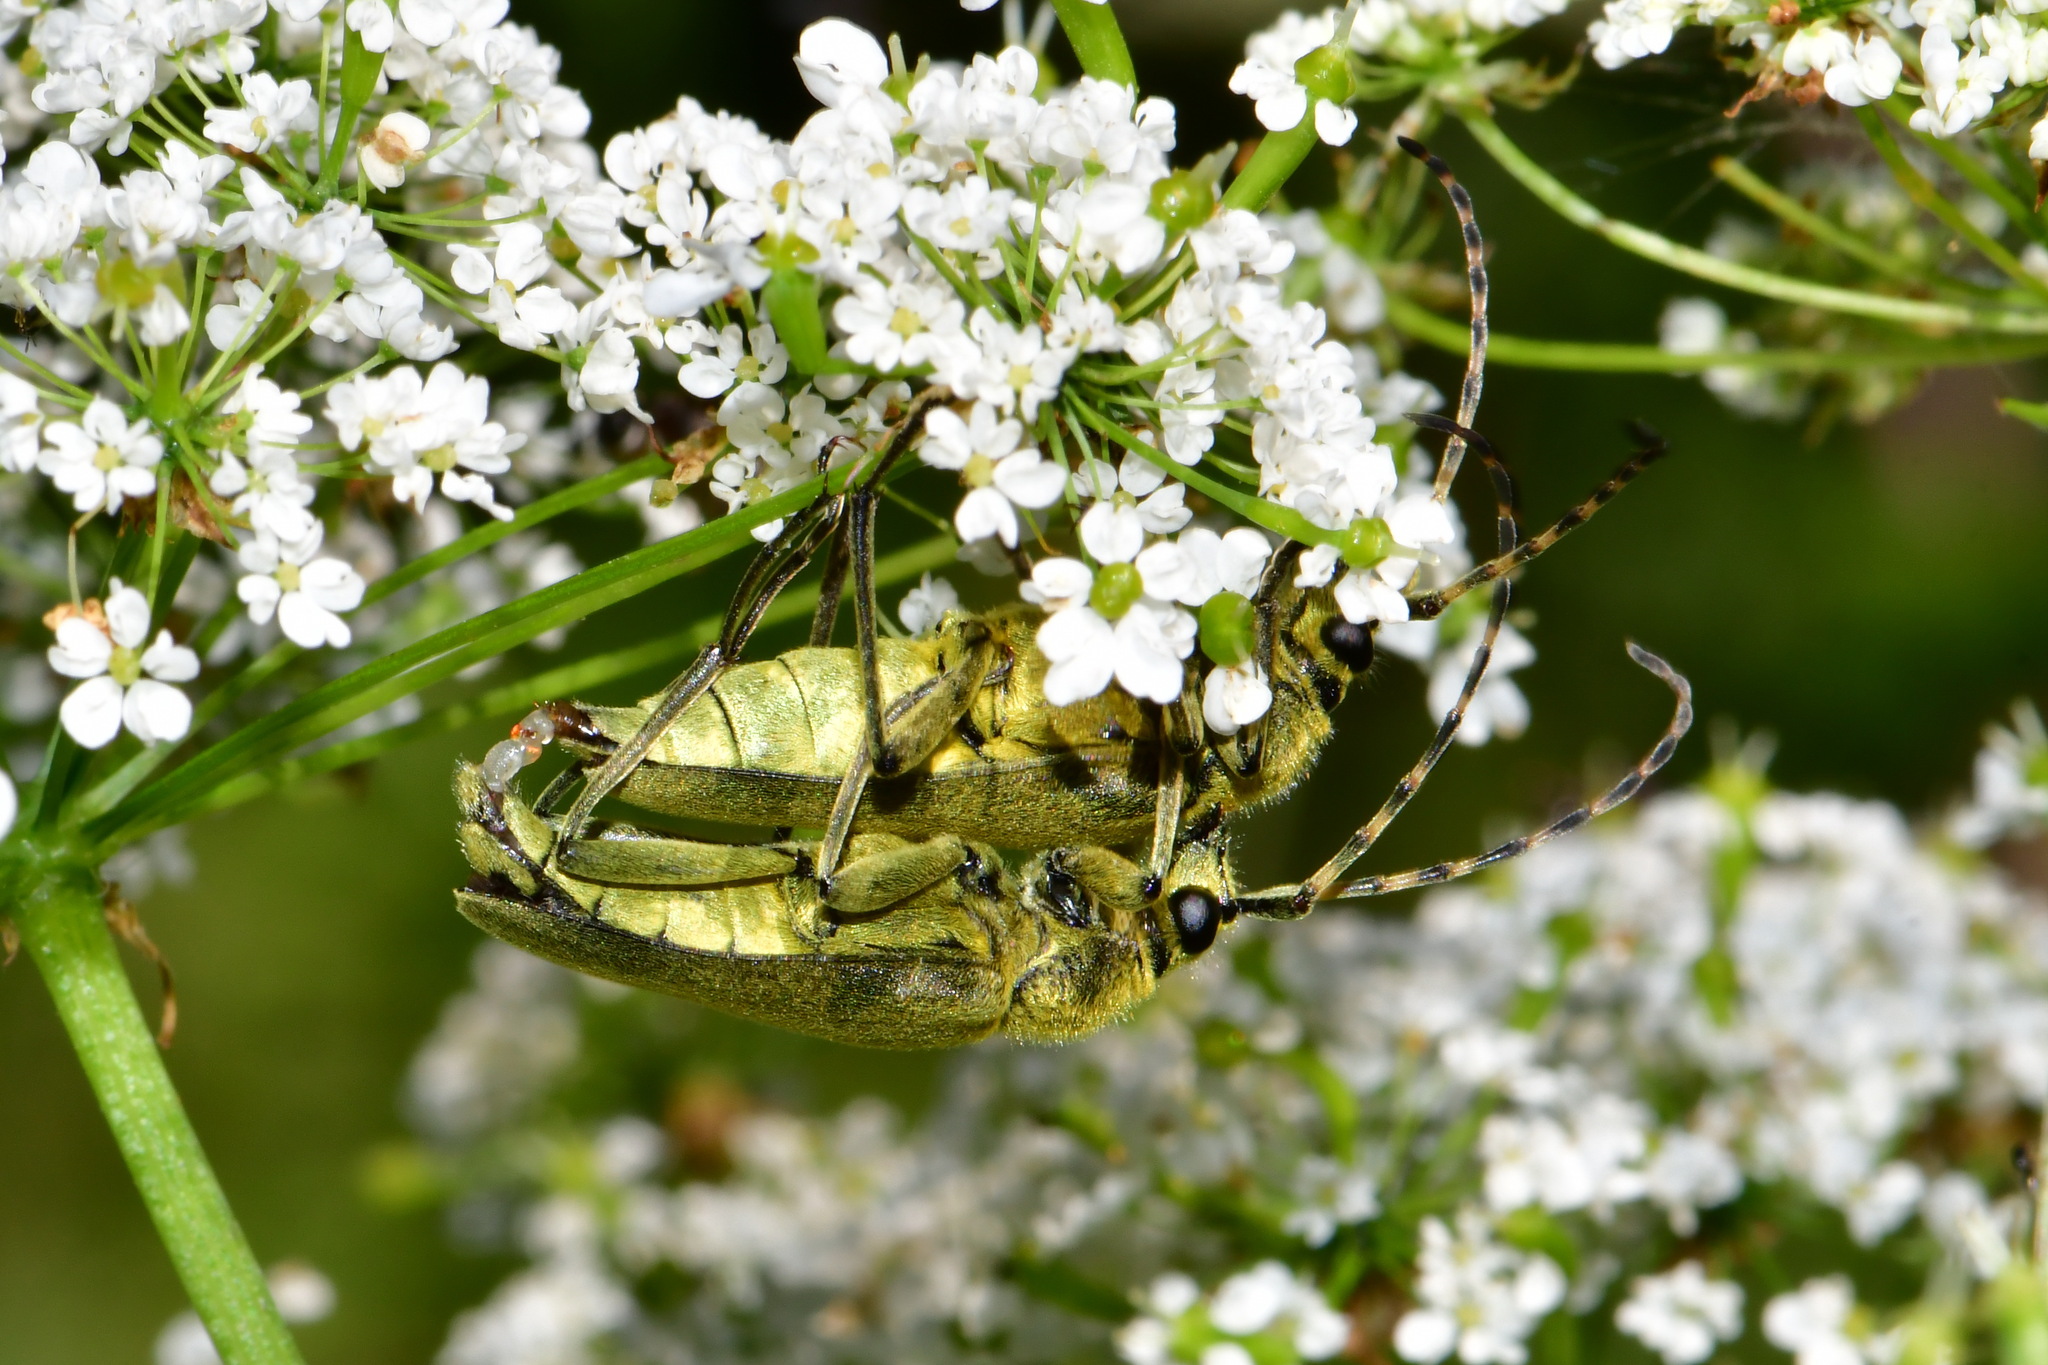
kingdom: Animalia
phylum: Arthropoda
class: Insecta
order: Coleoptera
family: Cerambycidae
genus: Lepturobosca
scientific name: Lepturobosca virens
